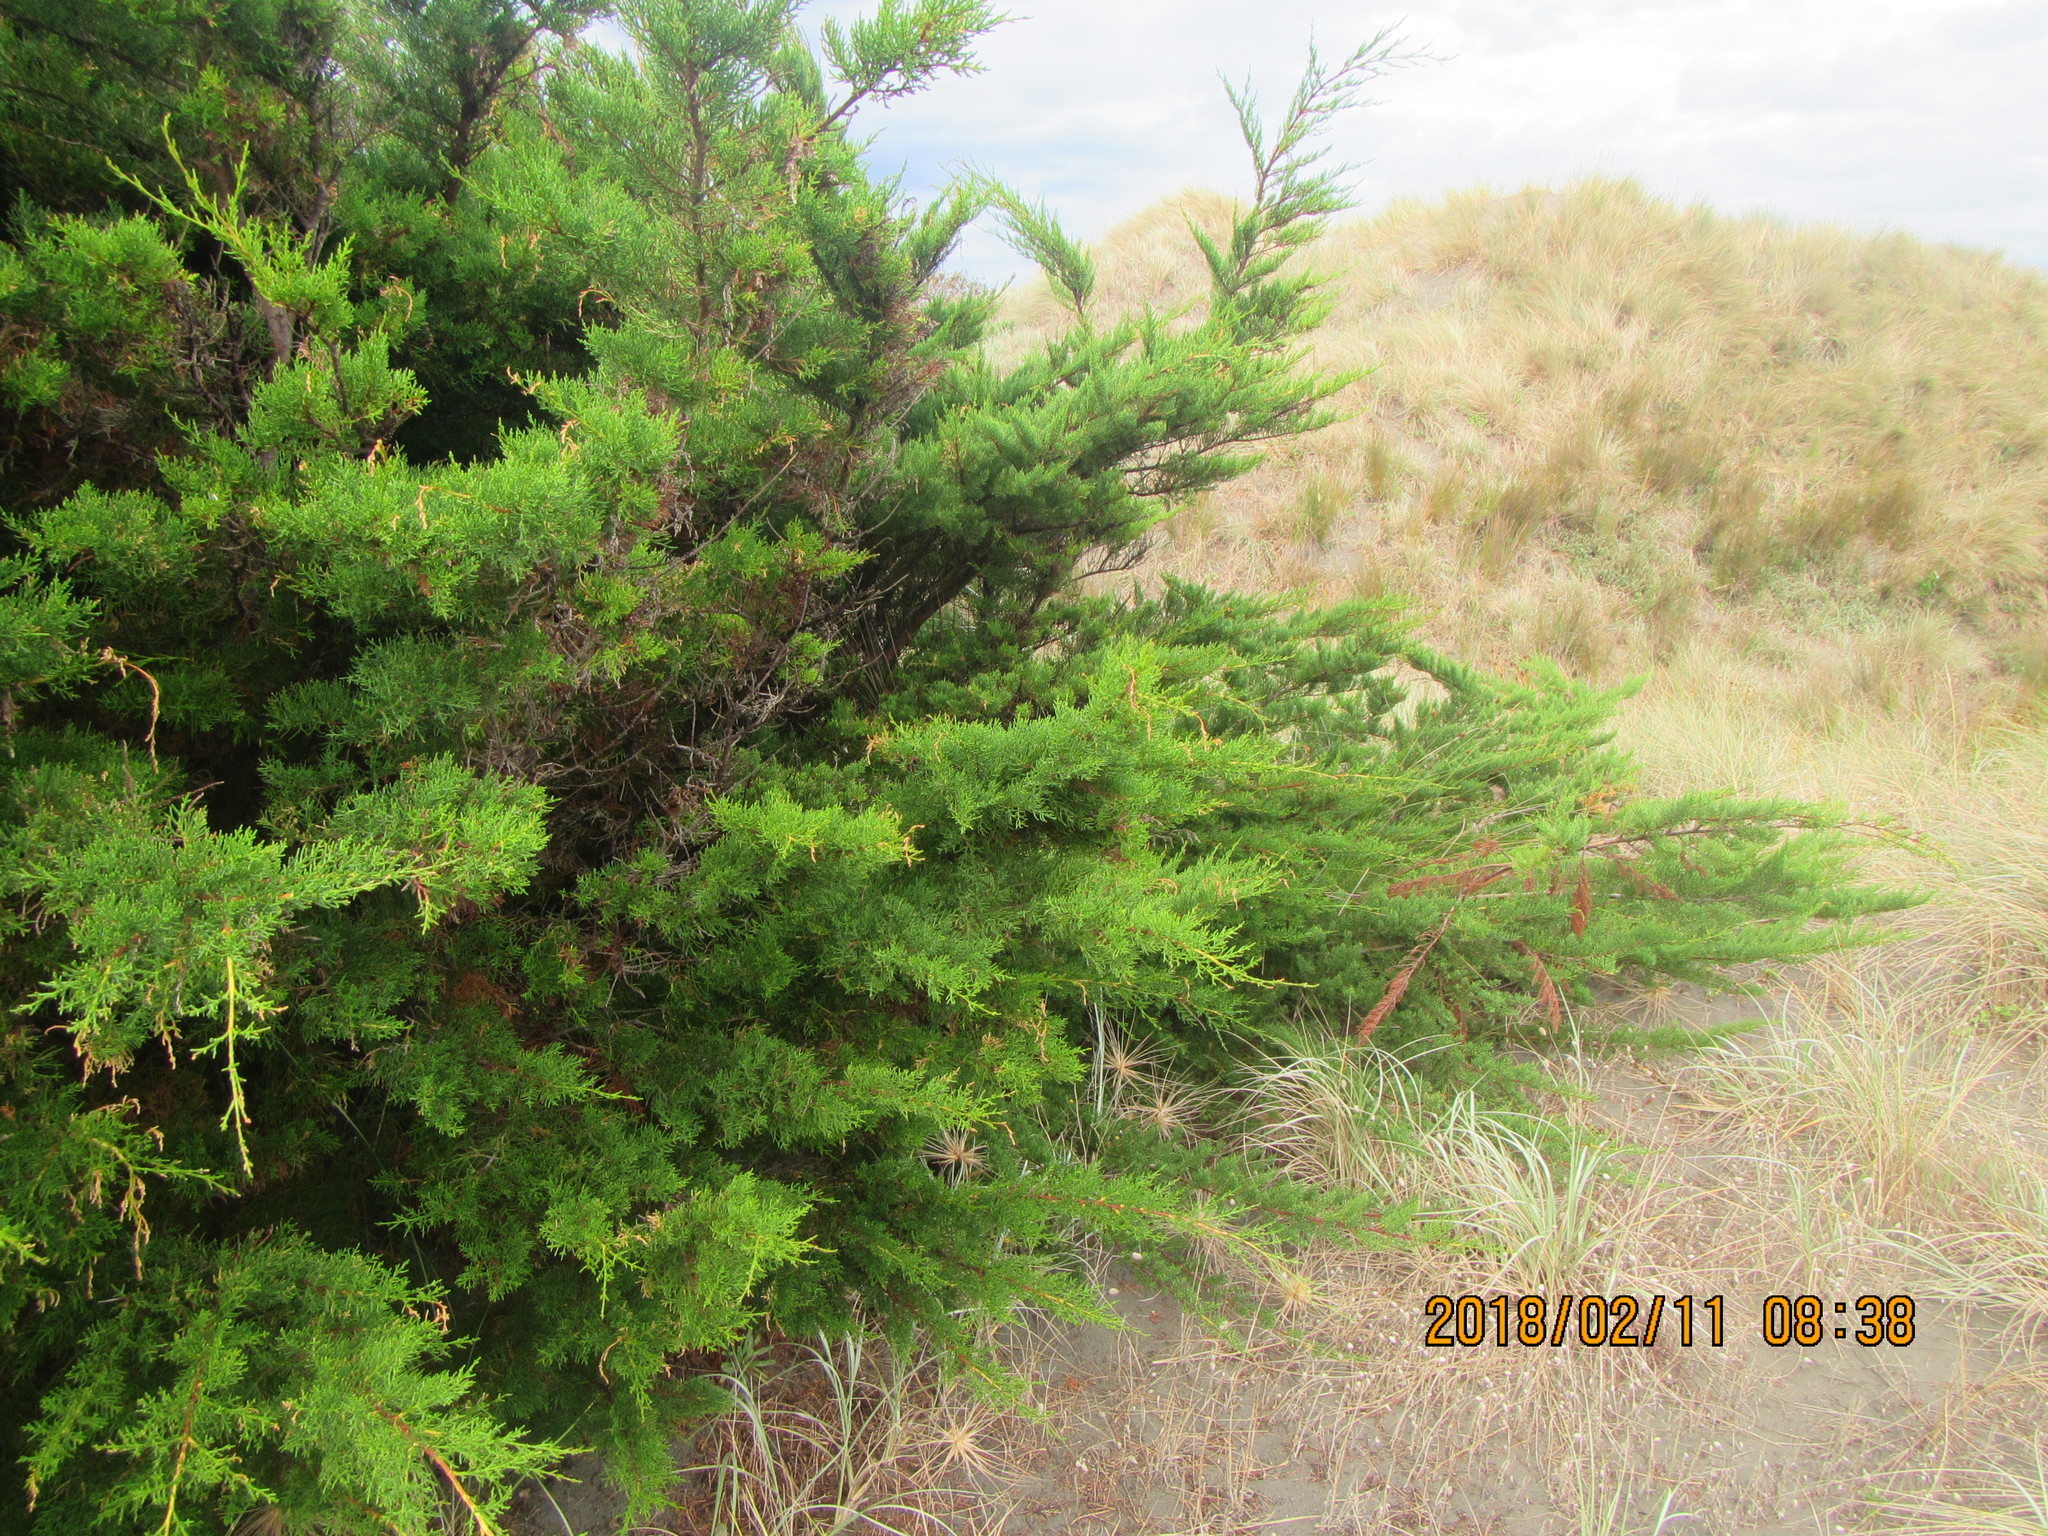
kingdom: Plantae
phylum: Tracheophyta
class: Pinopsida
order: Pinales
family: Cupressaceae
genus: Cupressus
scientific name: Cupressus macrocarpa
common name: Monterey cypress
